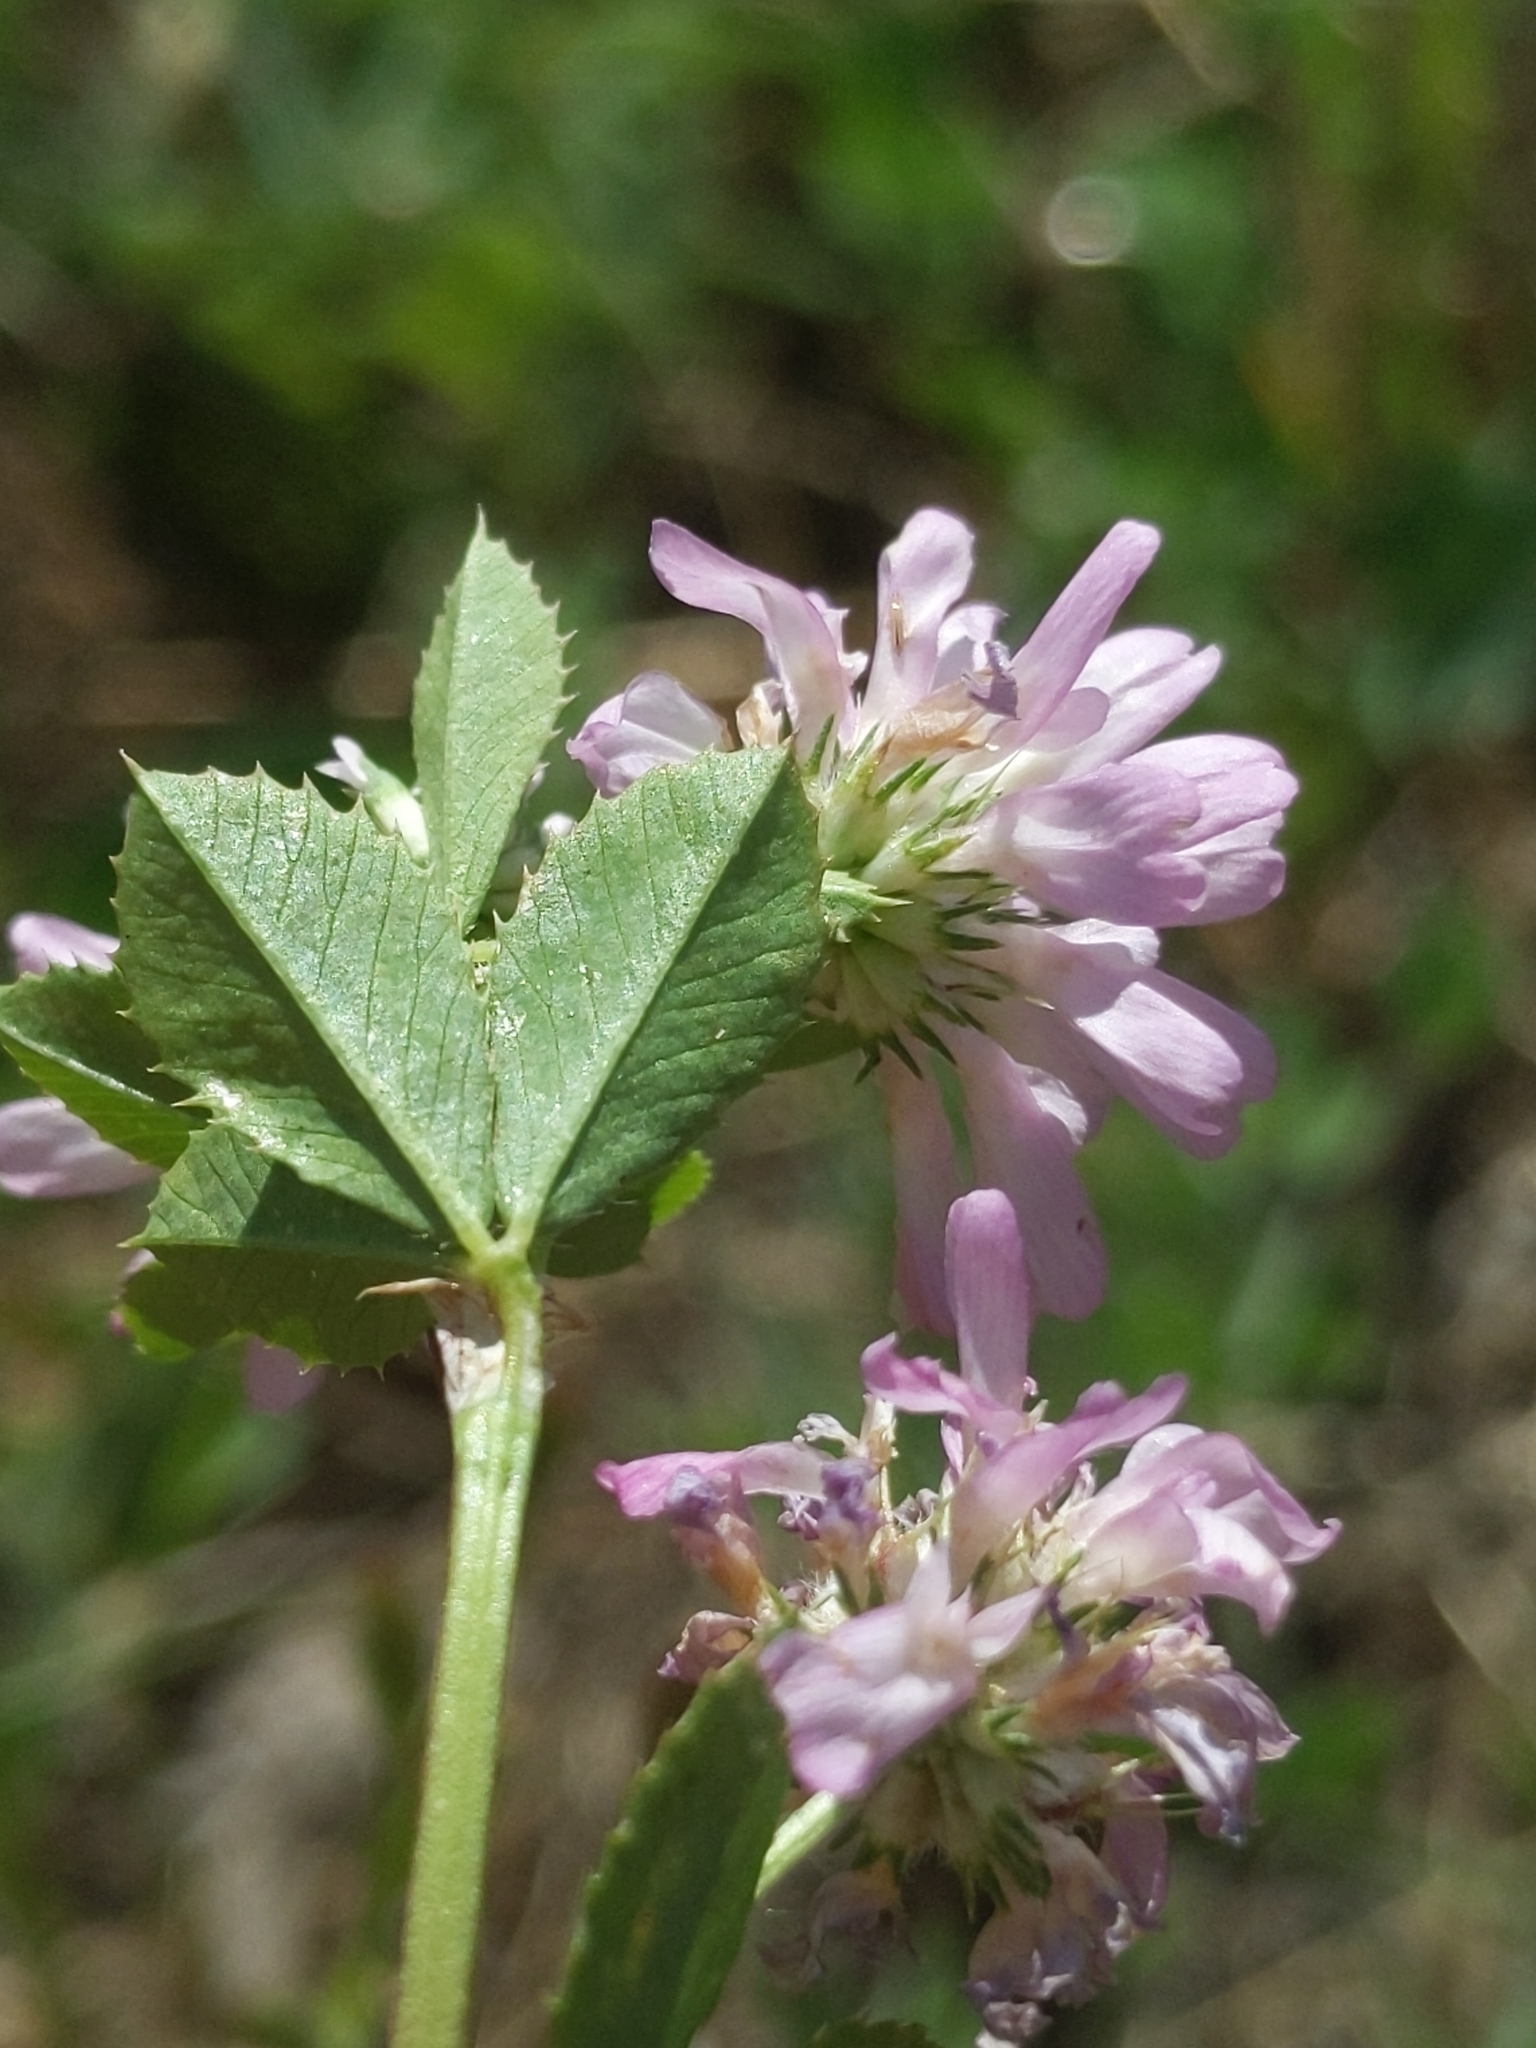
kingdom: Plantae
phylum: Tracheophyta
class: Magnoliopsida
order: Fabales
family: Fabaceae
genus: Trifolium
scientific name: Trifolium resupinatum
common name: Reversed clover
